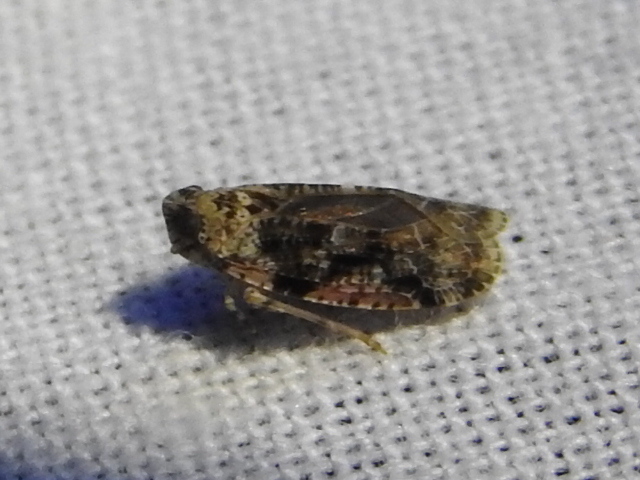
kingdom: Animalia
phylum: Arthropoda
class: Insecta
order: Hemiptera
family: Achilidae
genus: Catonia
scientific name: Catonia nava
